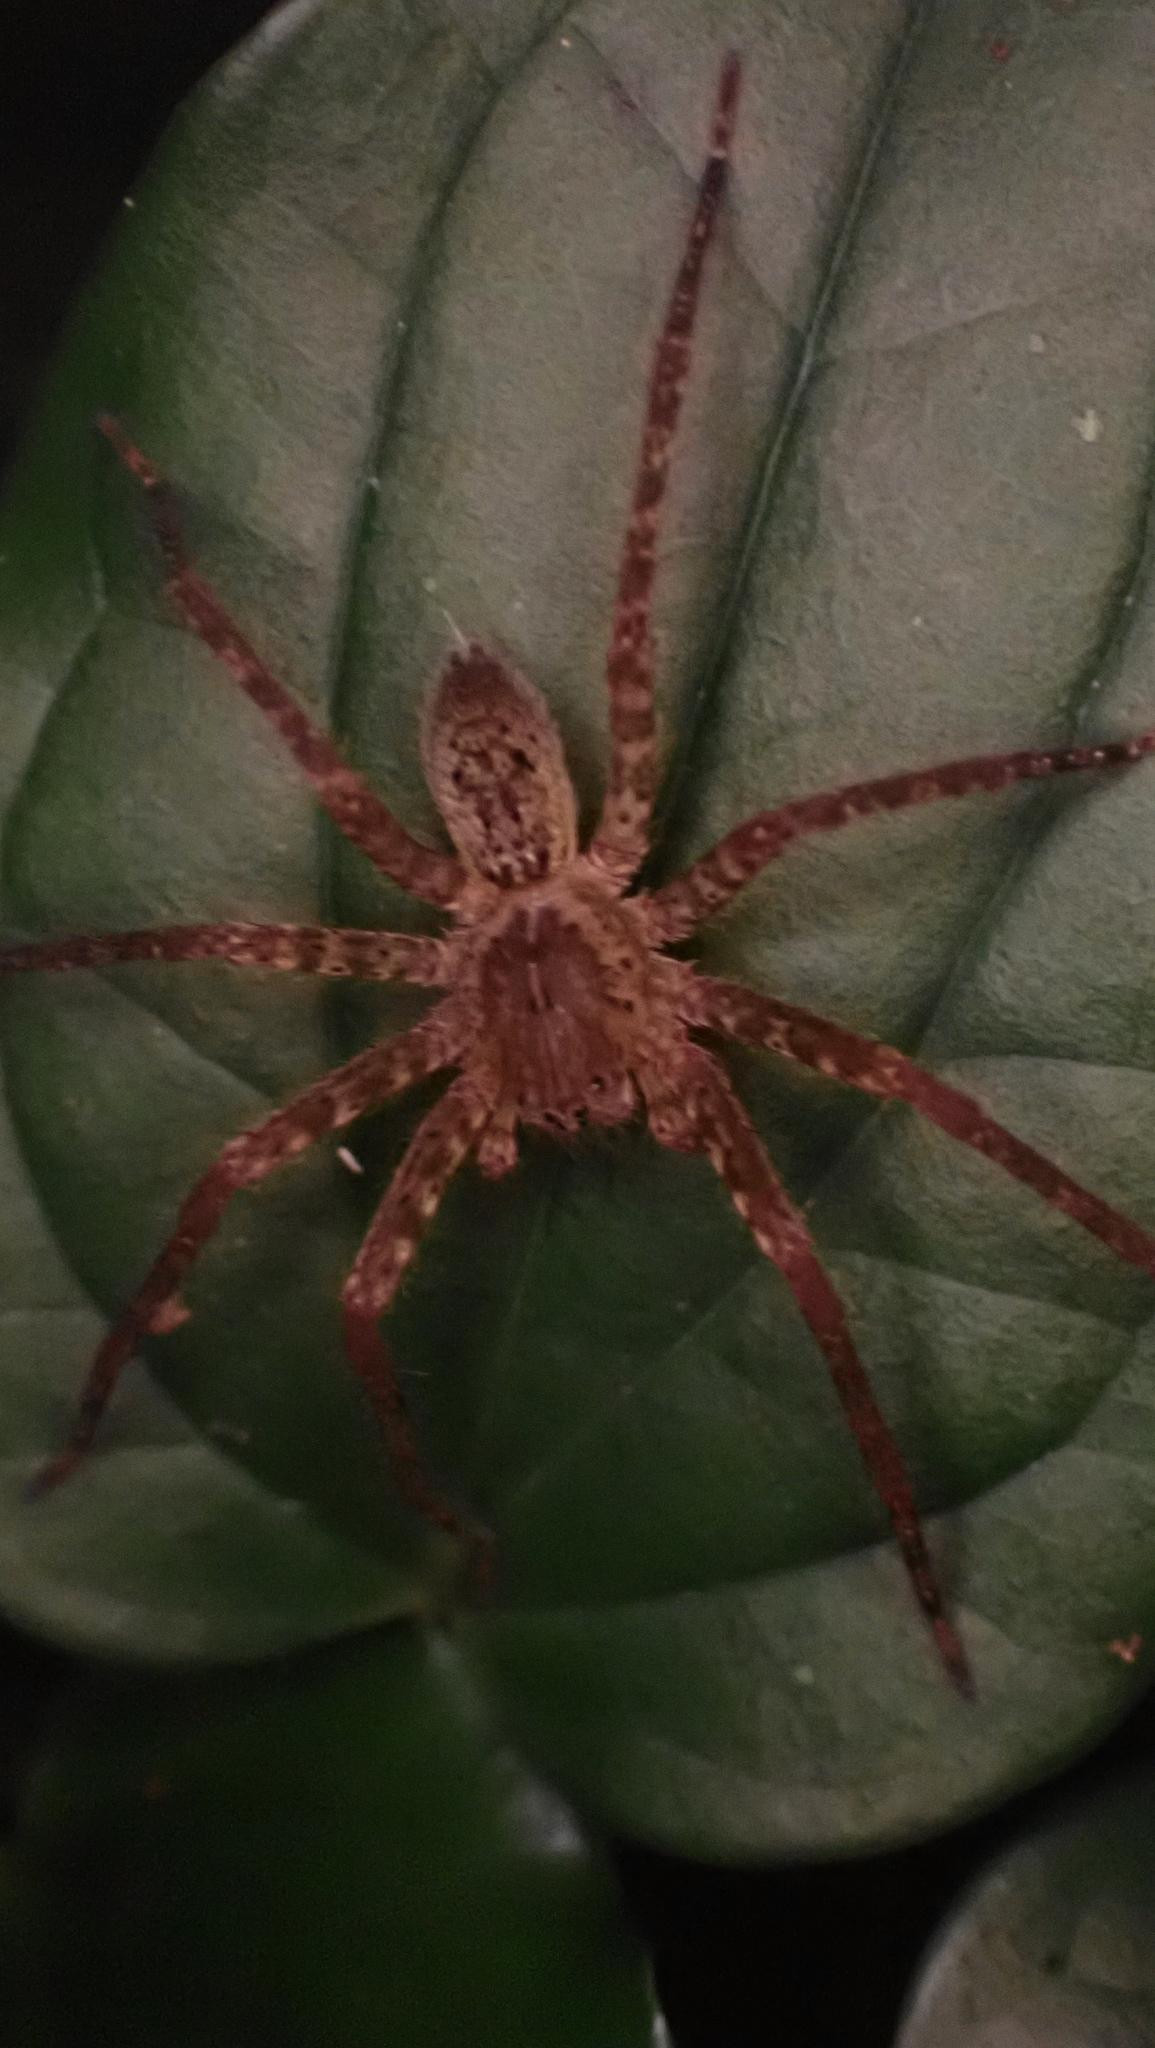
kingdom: Animalia
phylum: Arthropoda
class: Arachnida
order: Araneae
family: Trechaleidae
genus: Cupiennius
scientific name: Cupiennius coccineus
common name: Wandering spiders
